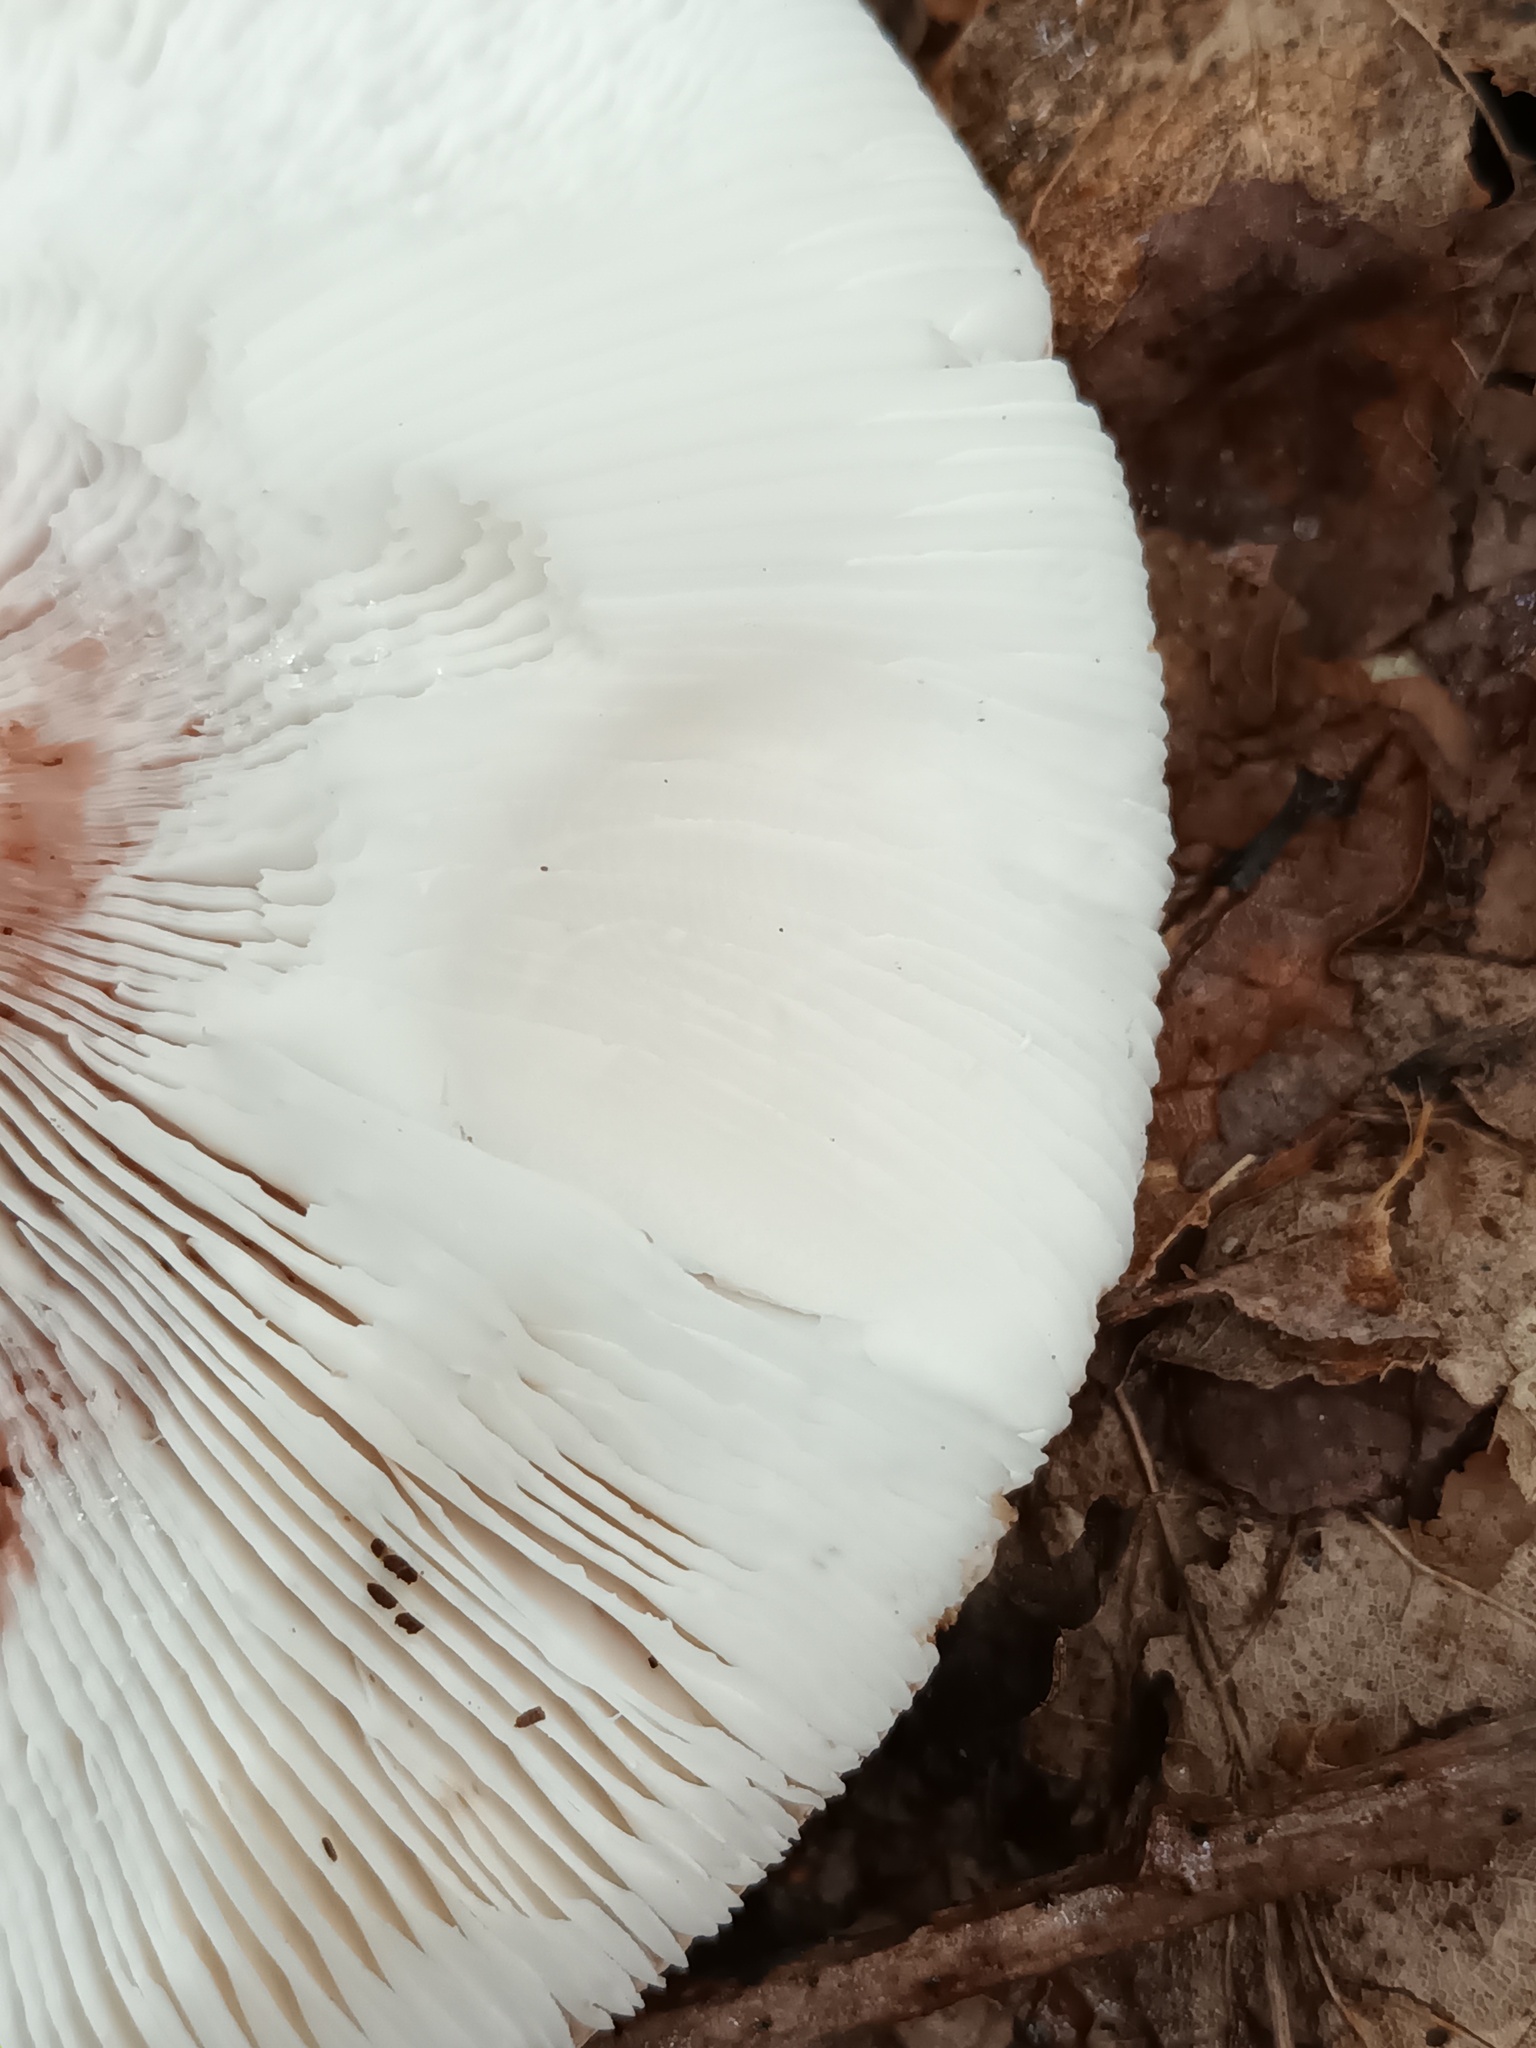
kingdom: Fungi
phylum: Basidiomycota
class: Agaricomycetes
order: Agaricales
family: Amanitaceae
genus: Amanita
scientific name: Amanita rubescens
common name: Blusher
